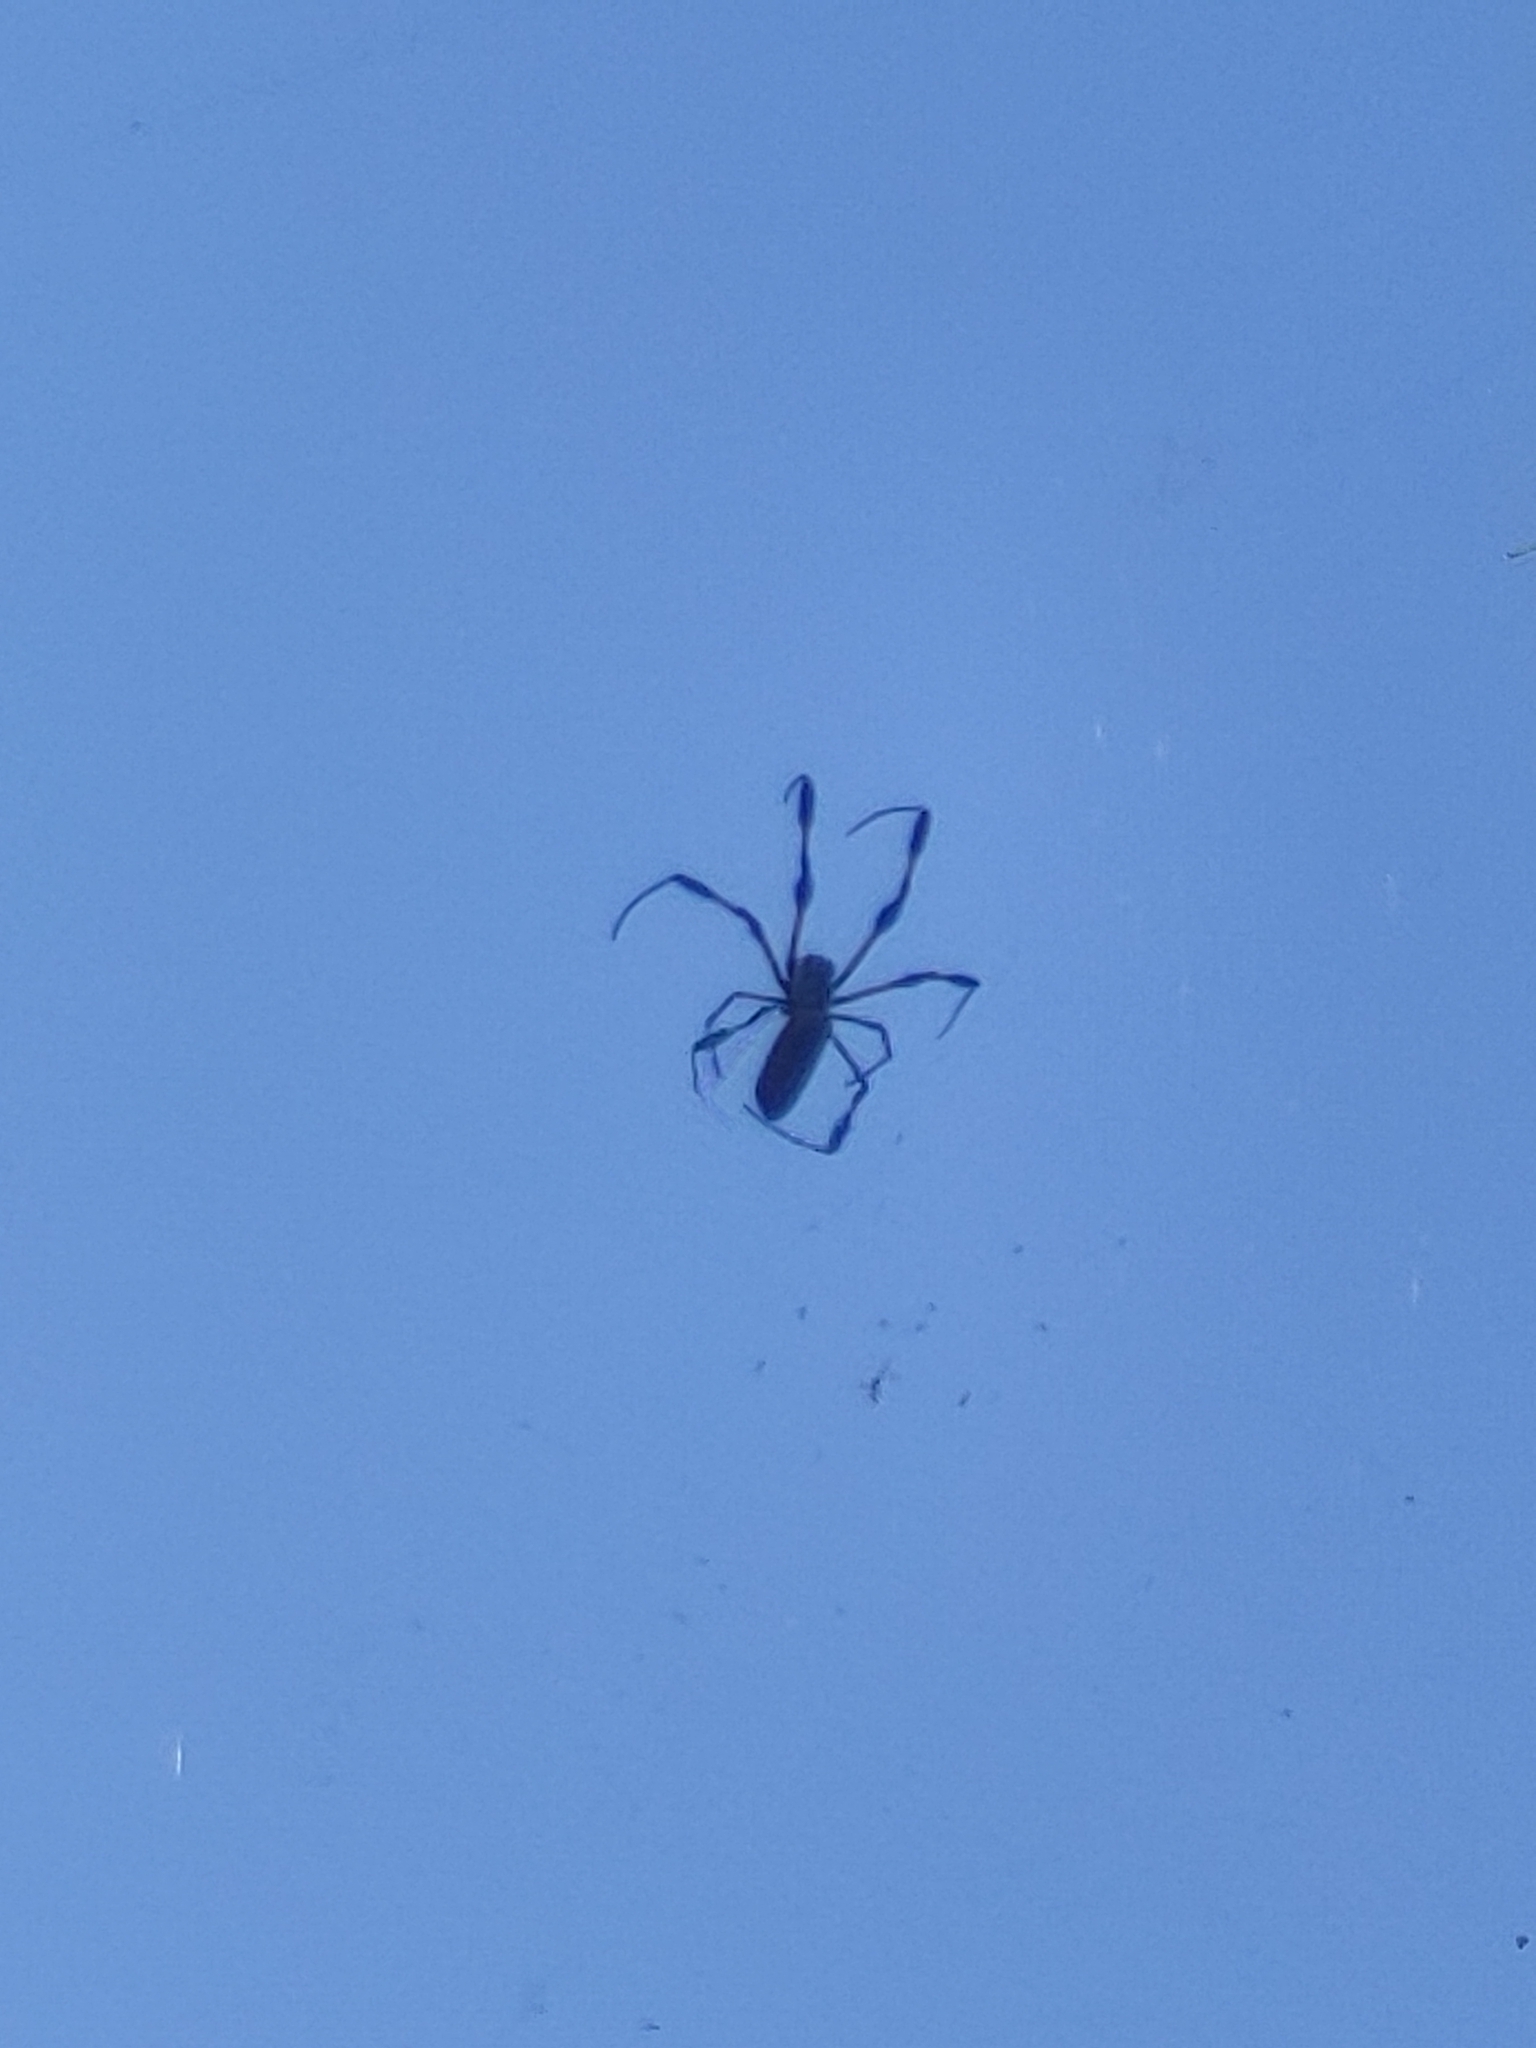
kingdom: Animalia
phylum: Arthropoda
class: Arachnida
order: Araneae
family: Araneidae
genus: Trichonephila
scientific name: Trichonephila clavipes
